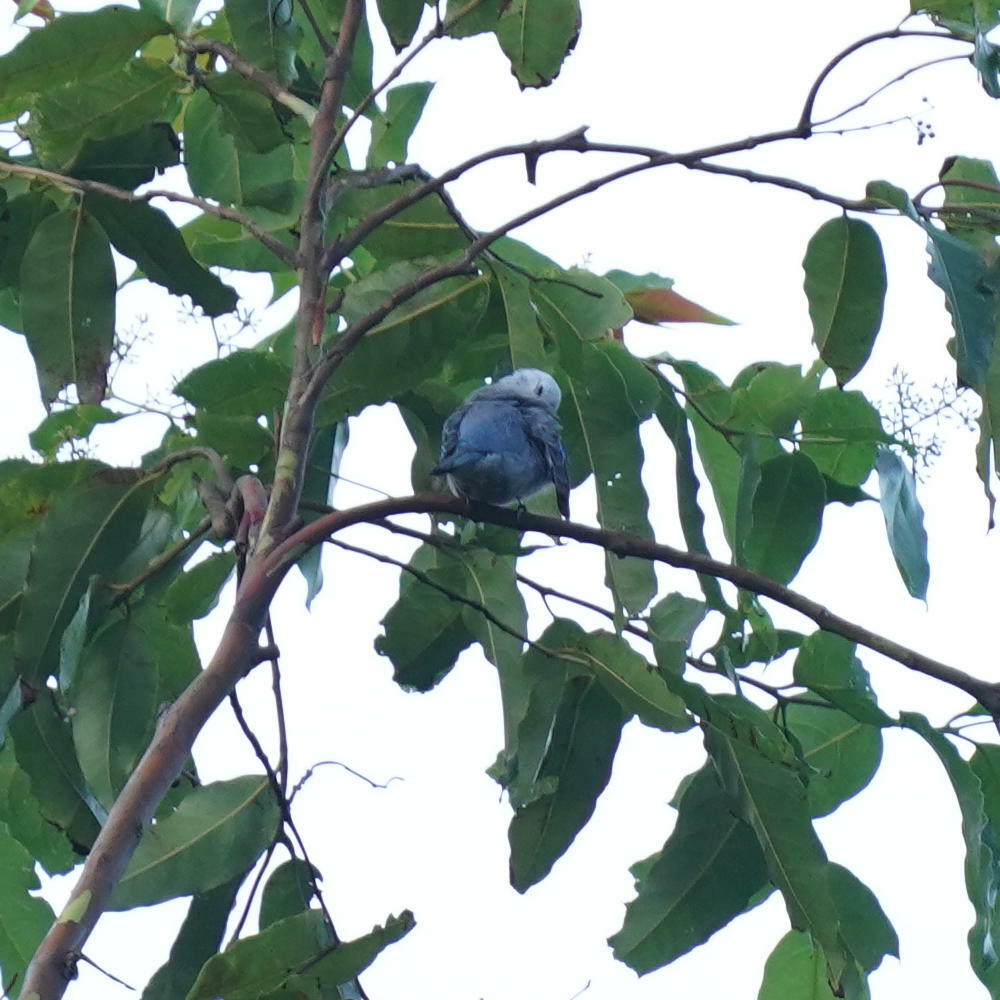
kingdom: Animalia
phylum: Chordata
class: Aves
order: Passeriformes
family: Thraupidae
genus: Thraupis
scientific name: Thraupis episcopus
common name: Blue-grey tanager
